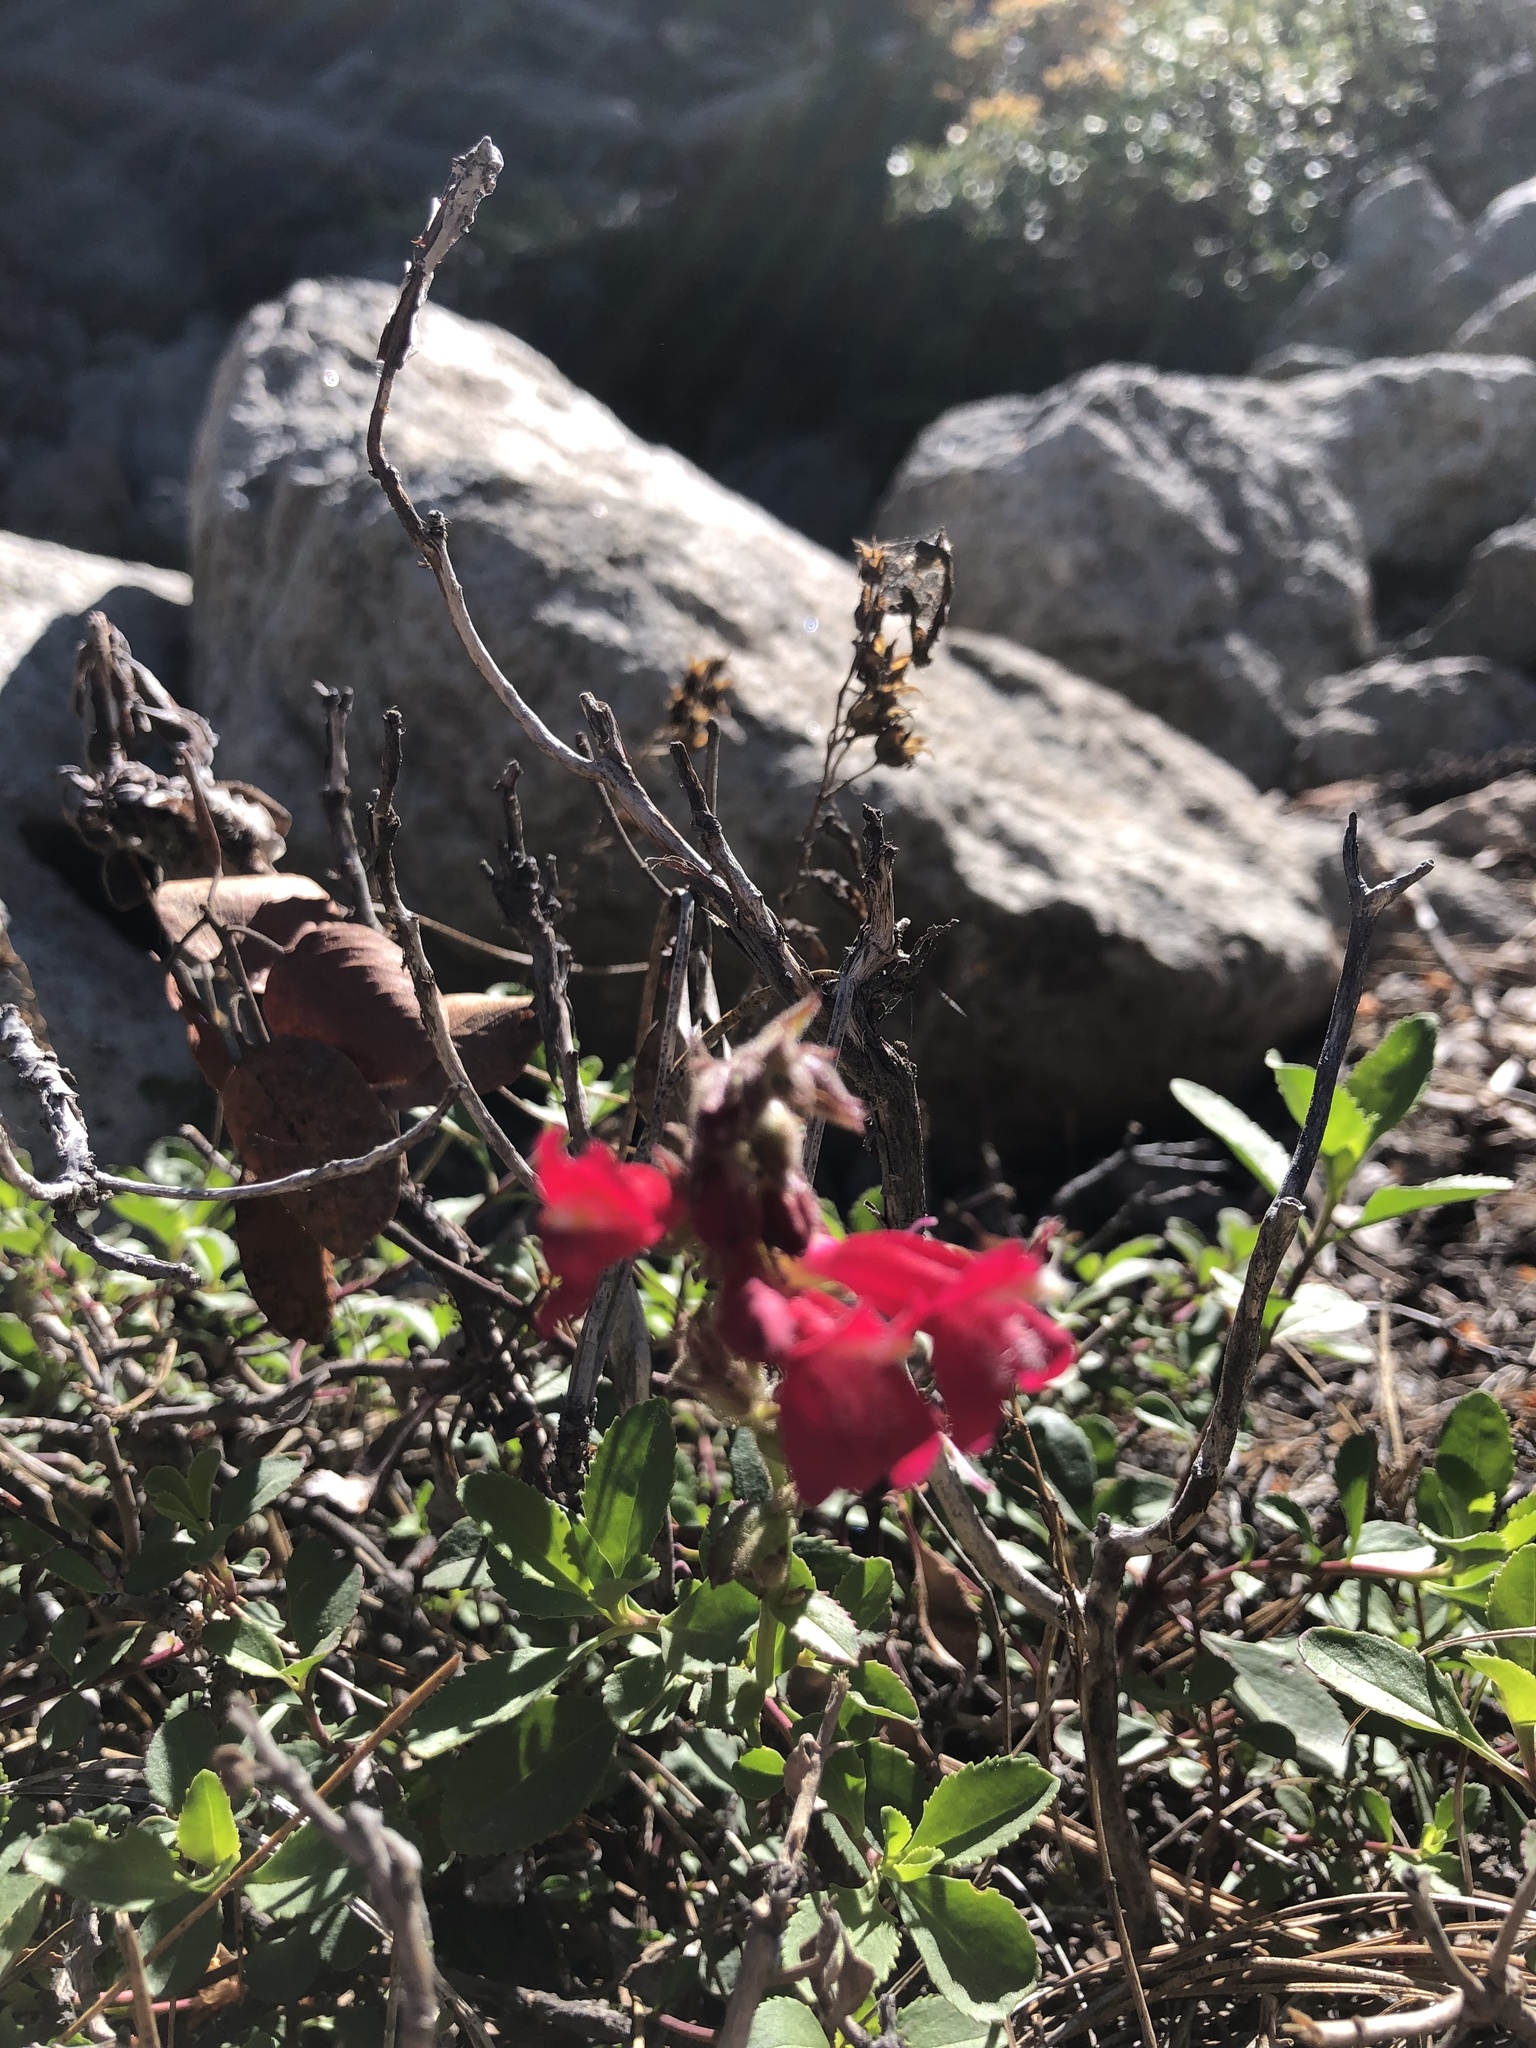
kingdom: Plantae
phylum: Tracheophyta
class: Magnoliopsida
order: Lamiales
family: Plantaginaceae
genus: Penstemon
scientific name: Penstemon newberryi
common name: Mountain-pride
